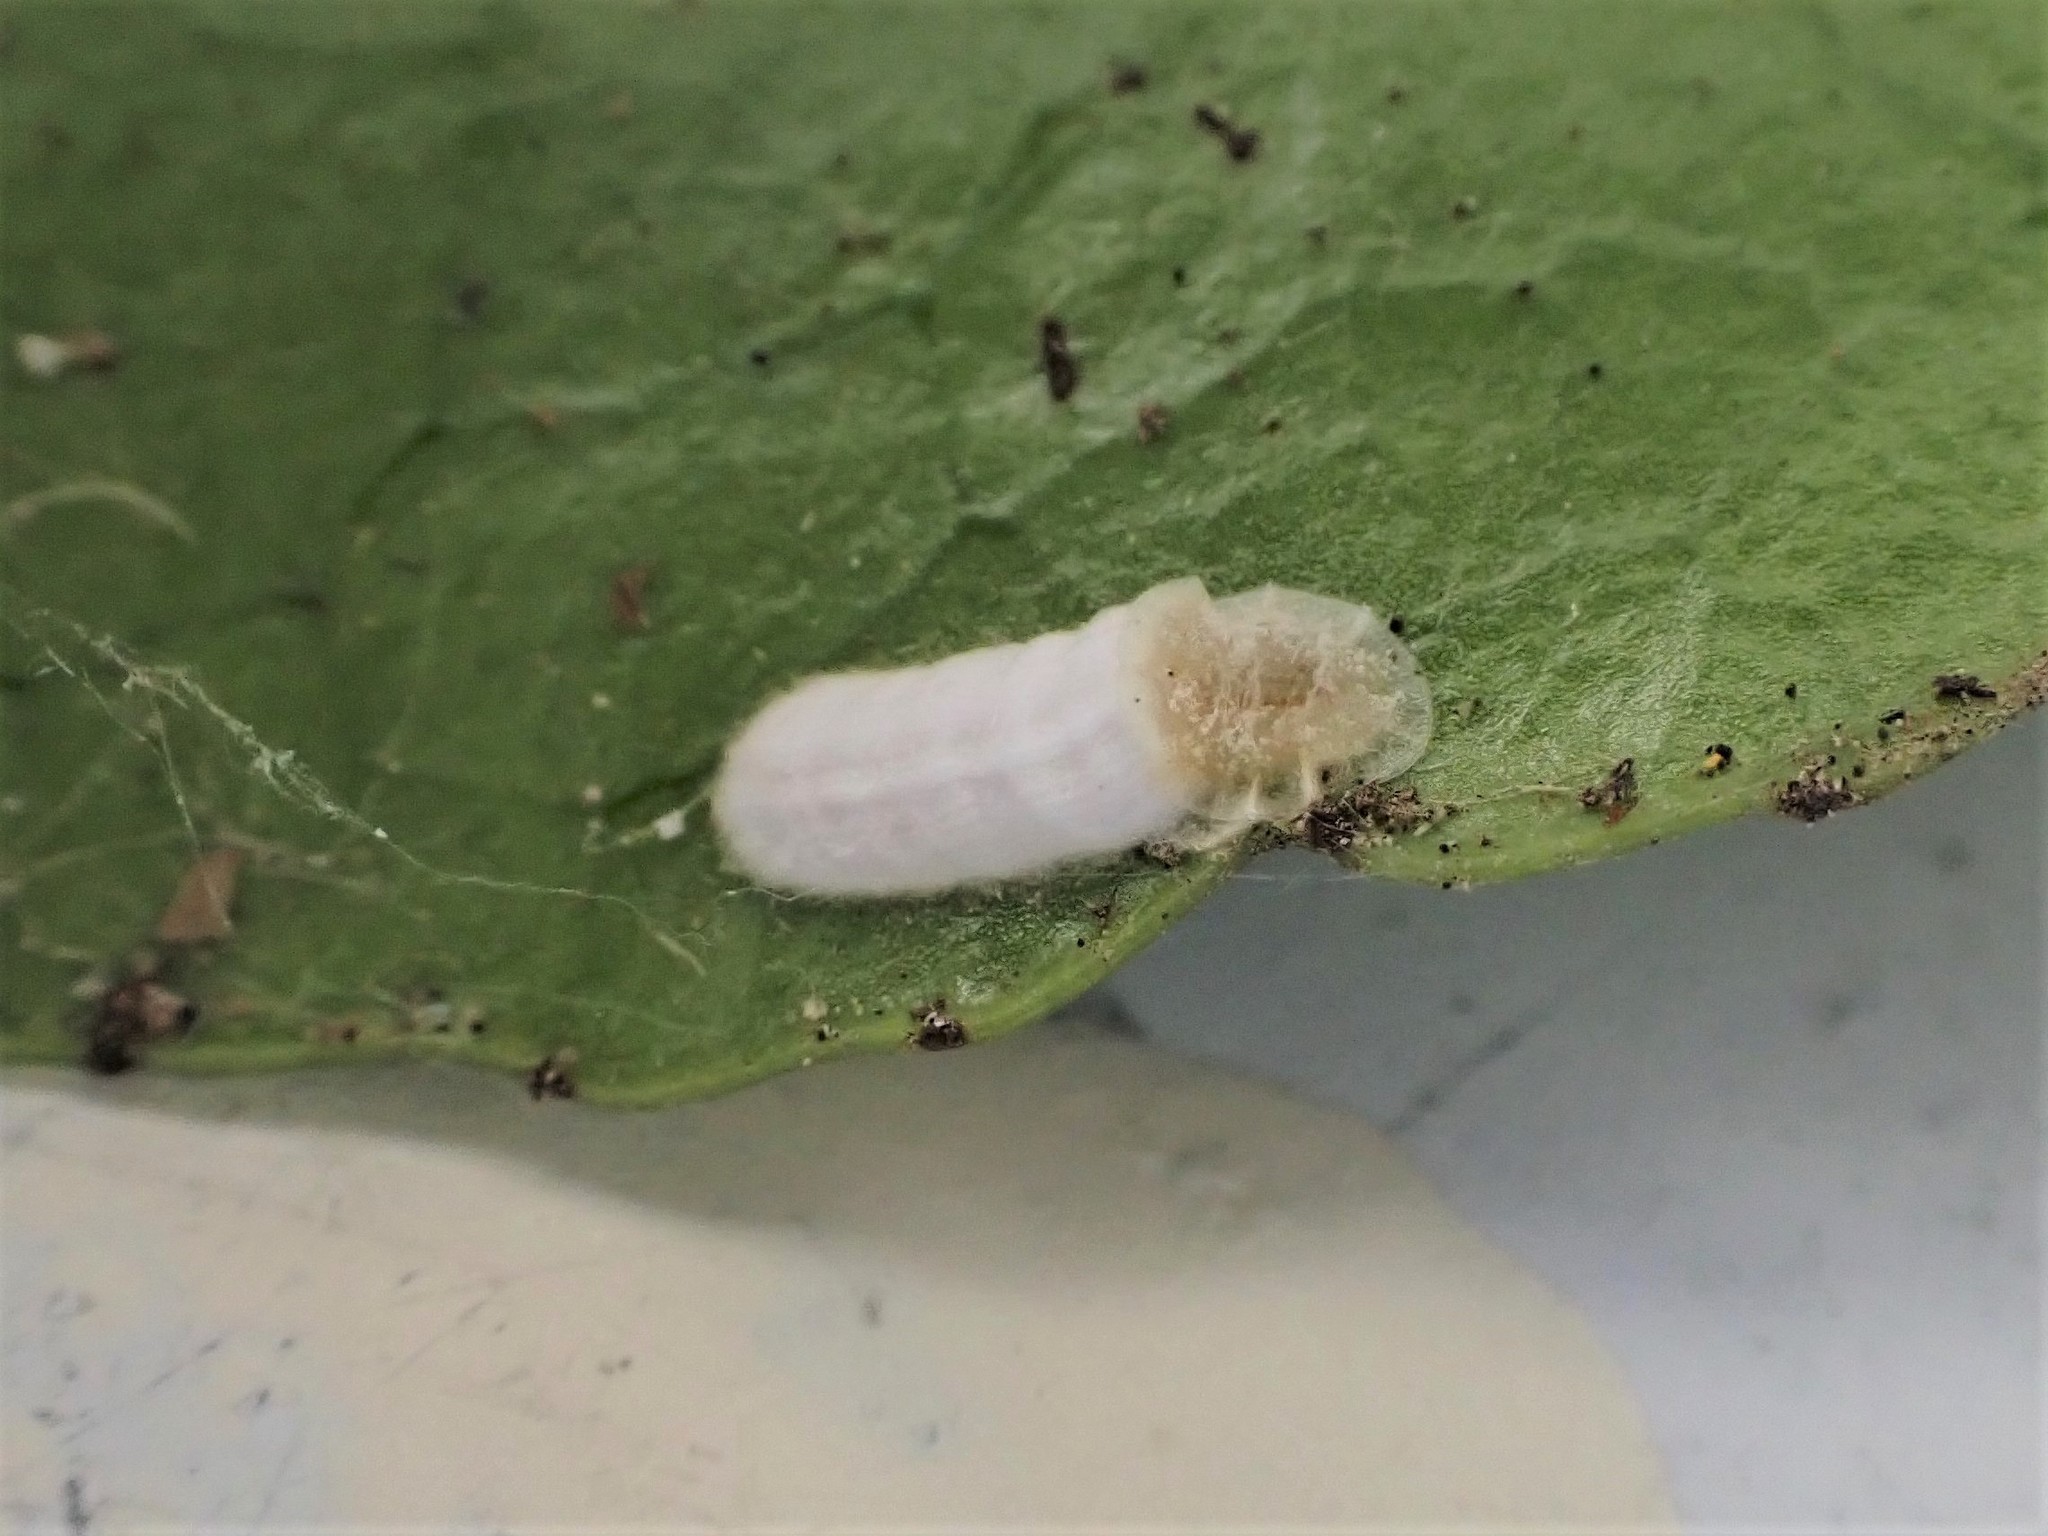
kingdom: Animalia
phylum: Arthropoda
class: Insecta
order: Hemiptera
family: Coccidae
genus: Pulvinaria
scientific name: Pulvinaria floccifera
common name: Cottony camellia scale
